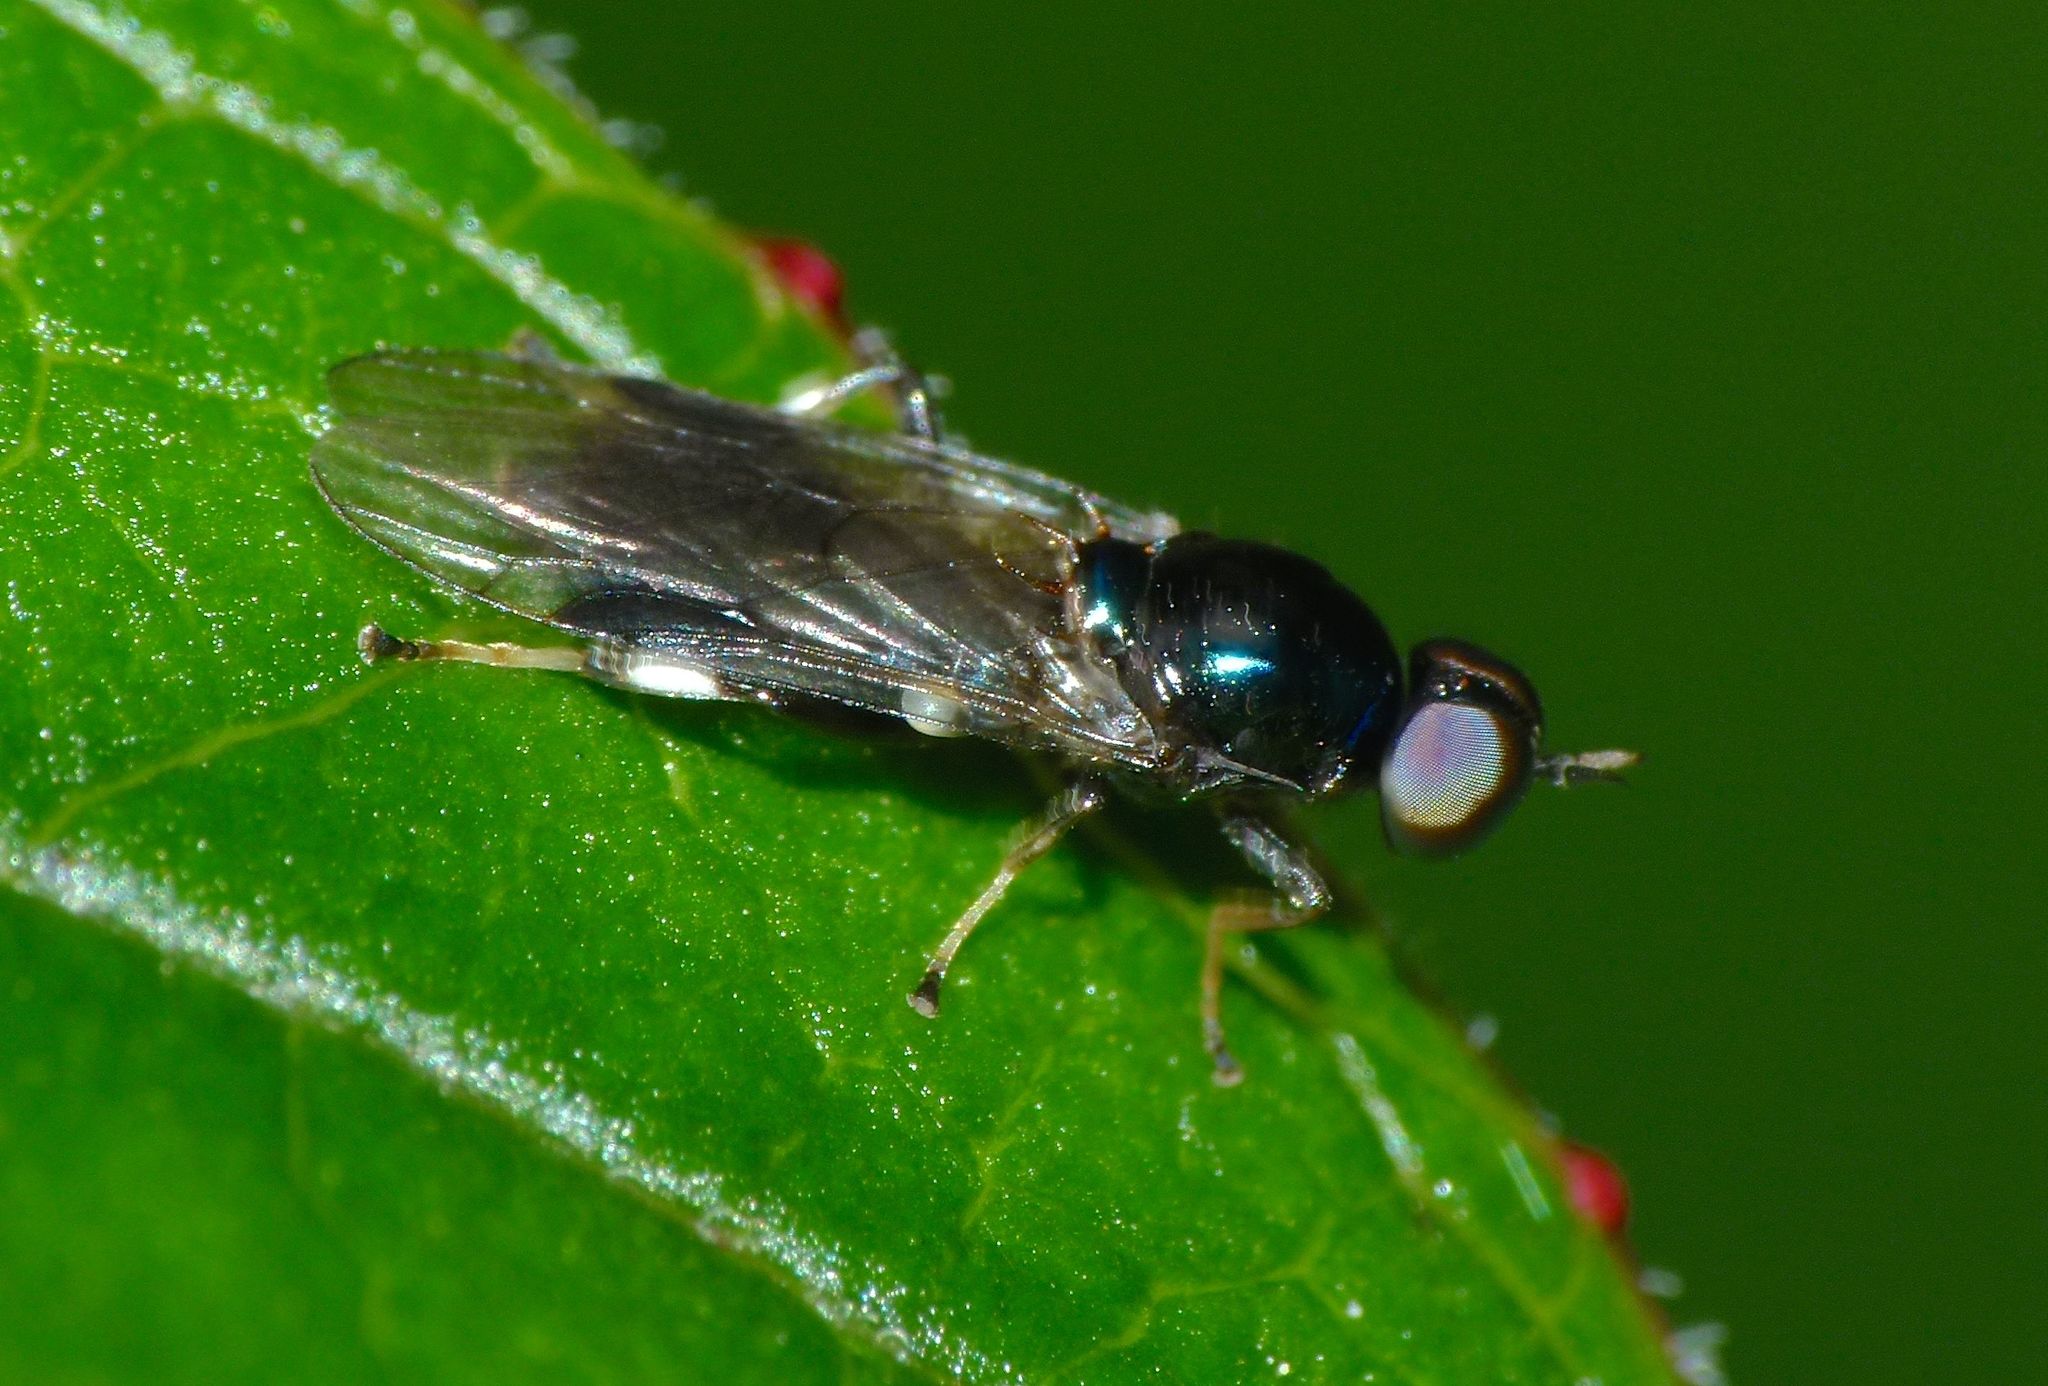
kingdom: Animalia
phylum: Arthropoda
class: Insecta
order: Diptera
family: Stratiomyidae
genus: Zealandoberis
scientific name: Zealandoberis lacuans
